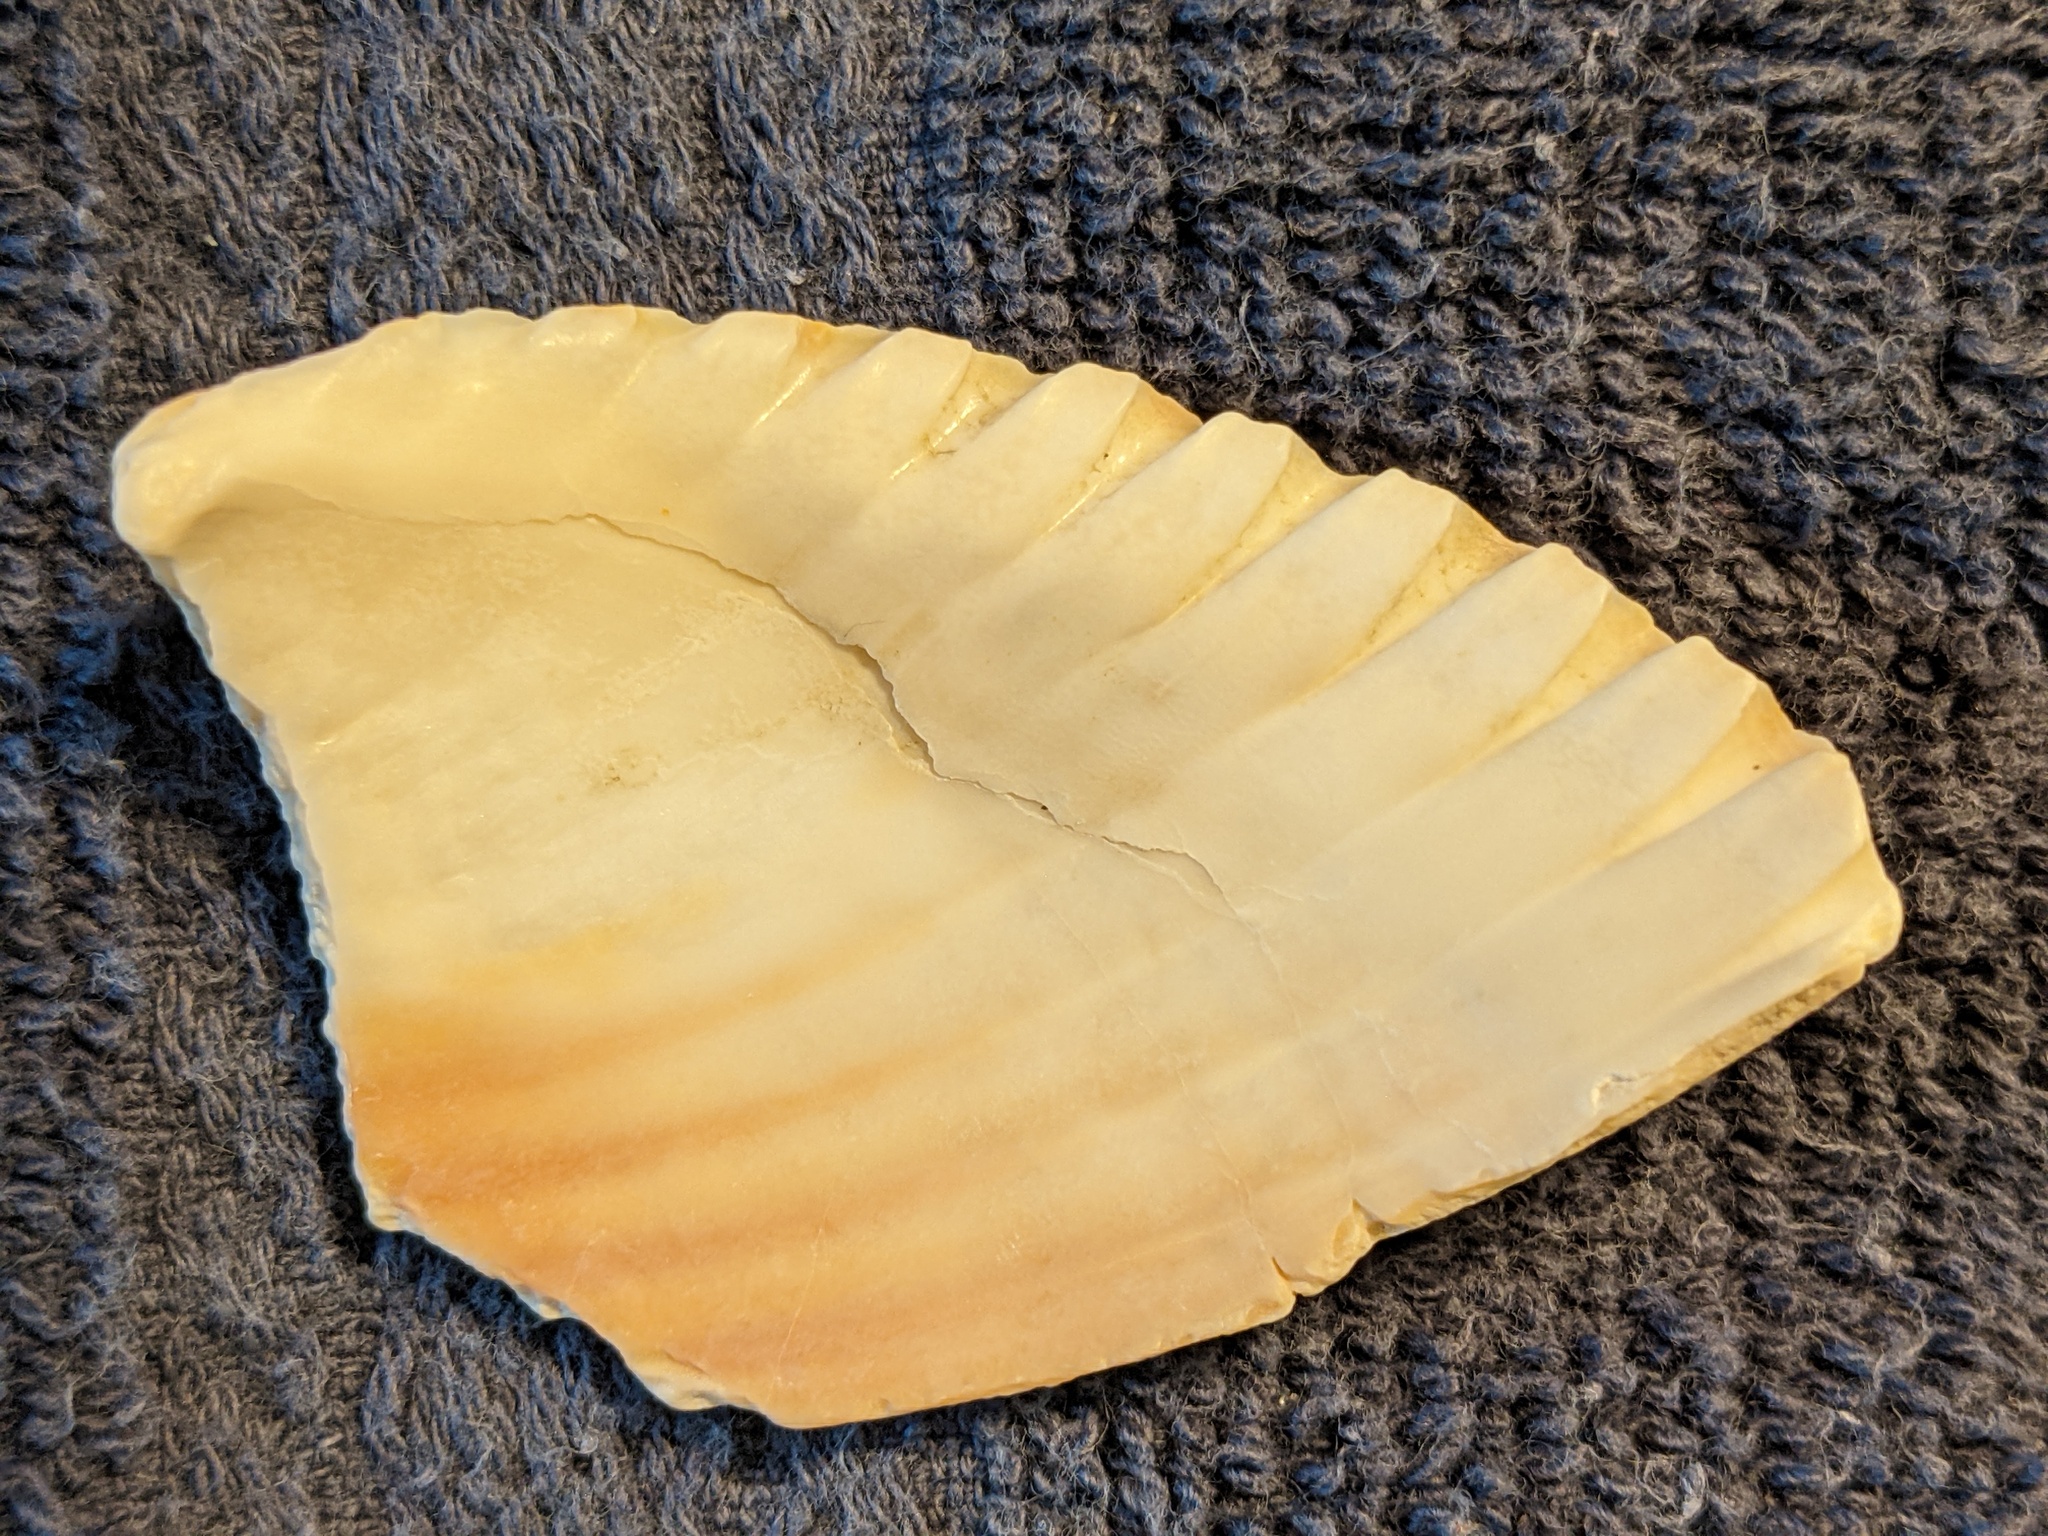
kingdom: Animalia
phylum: Mollusca
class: Bivalvia
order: Cardiida
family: Cardiidae
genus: Dinocardium
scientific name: Dinocardium robustum
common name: Atlantic giant cockle
